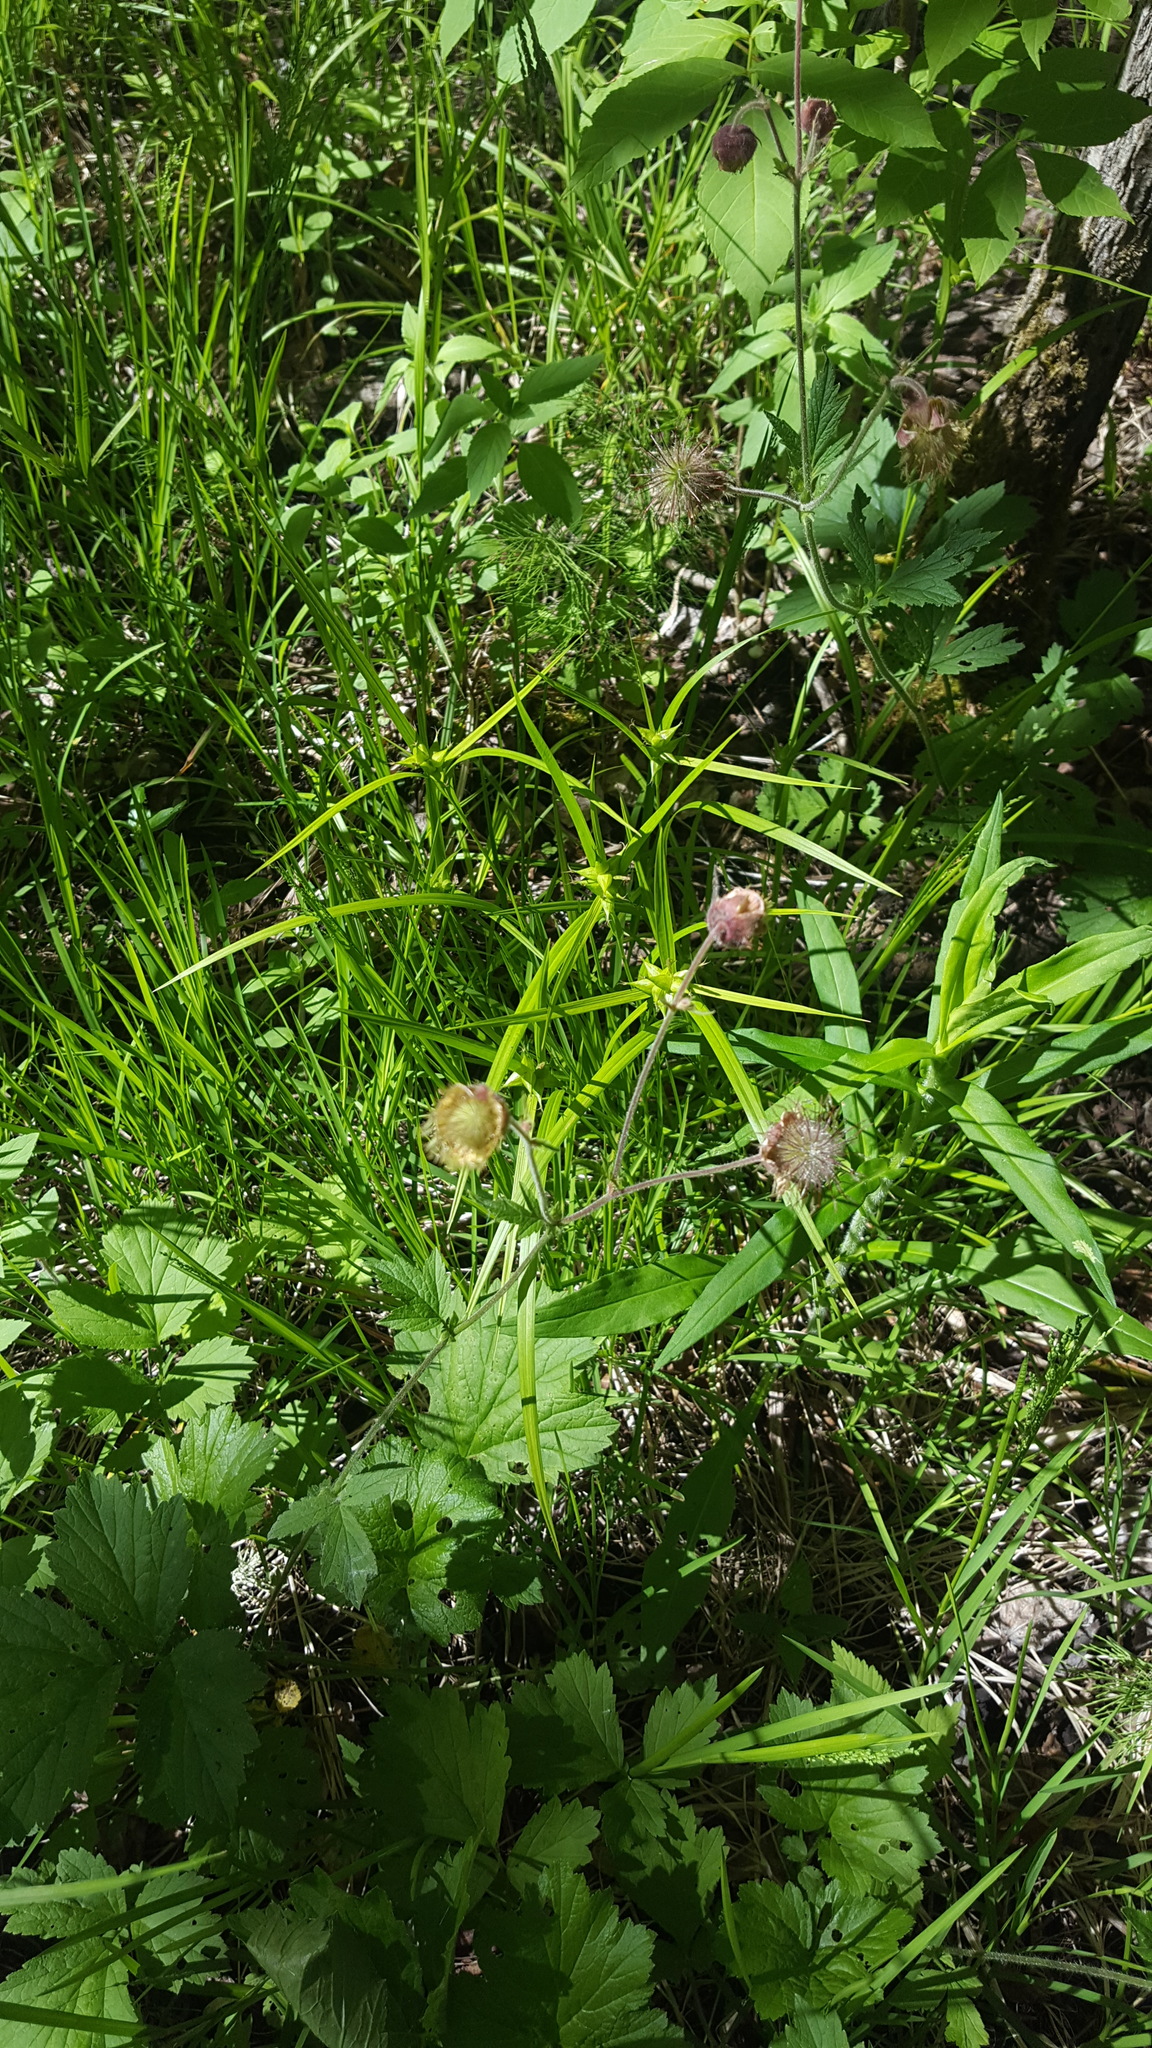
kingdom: Plantae
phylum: Tracheophyta
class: Magnoliopsida
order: Rosales
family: Rosaceae
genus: Geum
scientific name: Geum rivale
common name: Water avens
